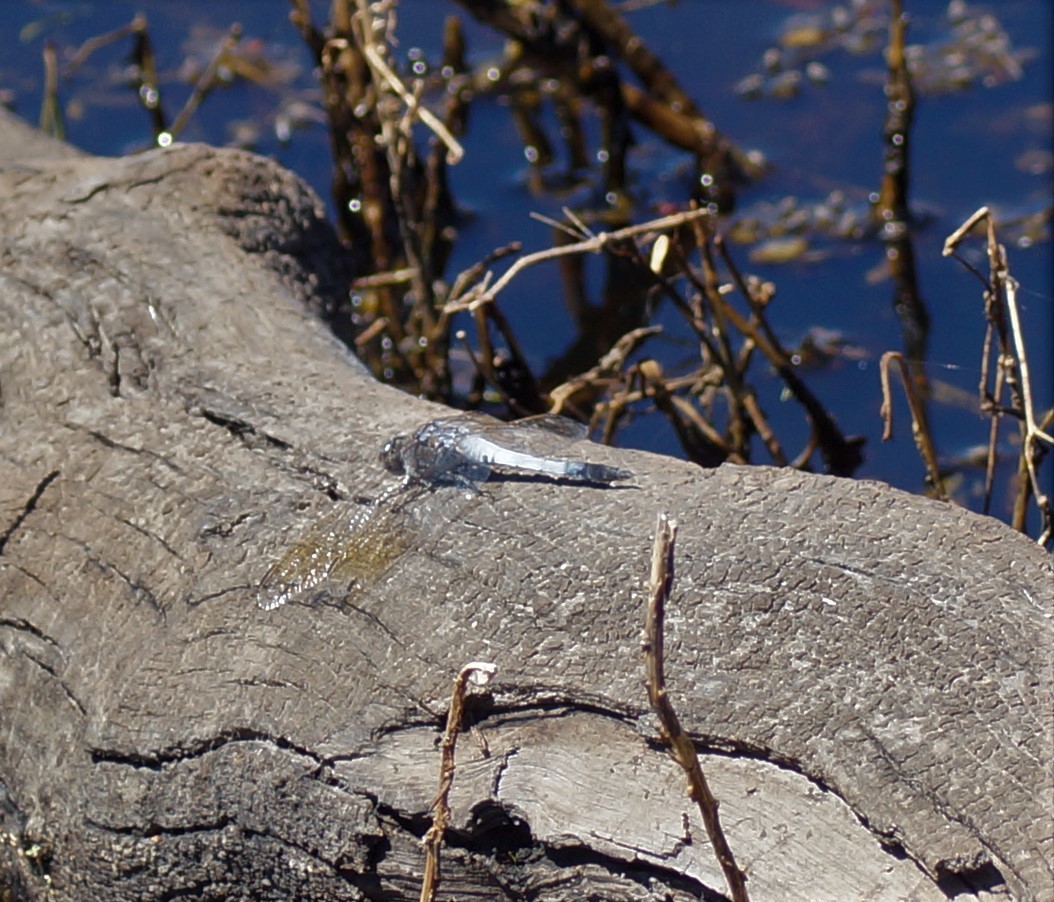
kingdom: Animalia
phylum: Arthropoda
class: Insecta
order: Odonata
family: Libellulidae
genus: Orthetrum
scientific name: Orthetrum caledonicum
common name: Blue skimmer
